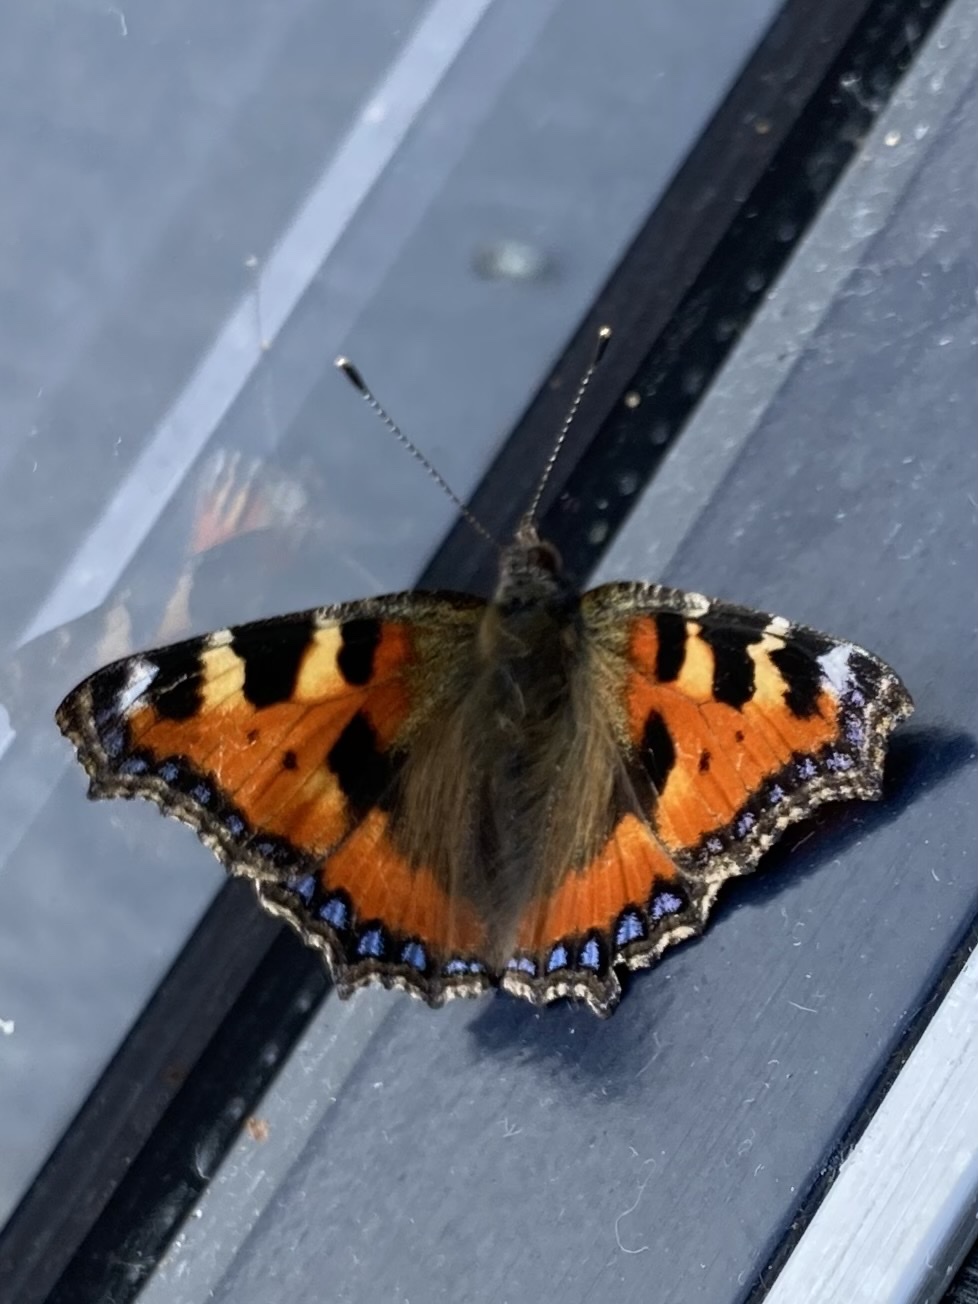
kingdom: Animalia
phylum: Arthropoda
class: Insecta
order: Lepidoptera
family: Nymphalidae
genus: Aglais
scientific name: Aglais urticae
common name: Small tortoiseshell
